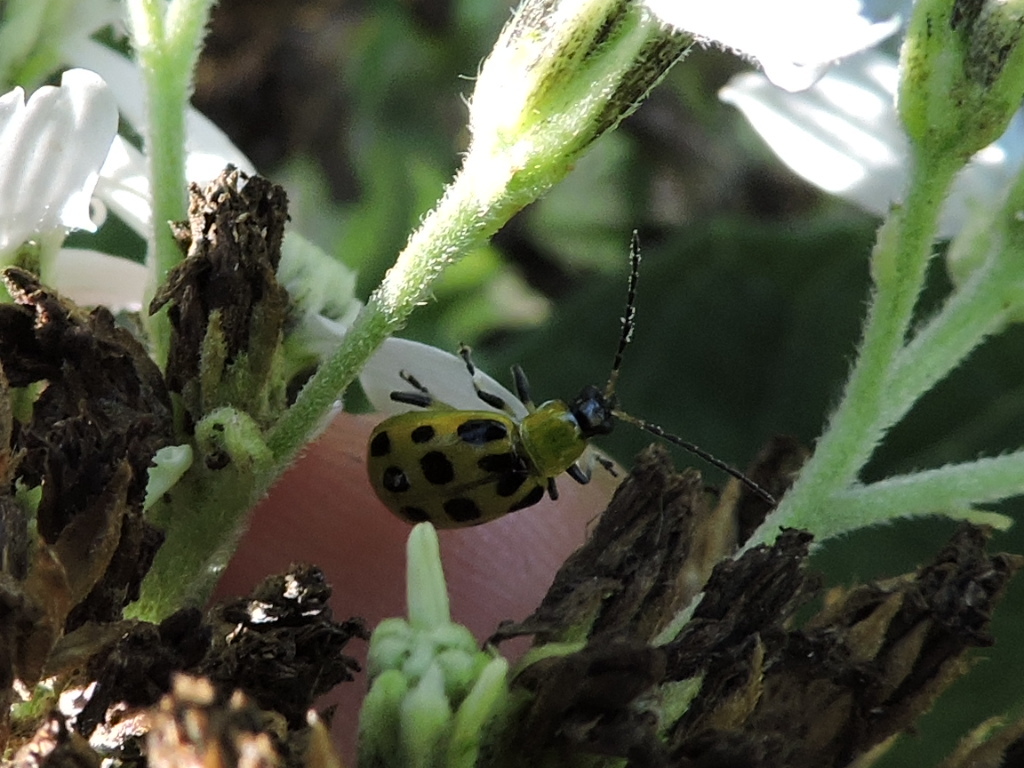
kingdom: Animalia
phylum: Arthropoda
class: Insecta
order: Coleoptera
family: Chrysomelidae
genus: Diabrotica
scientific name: Diabrotica undecimpunctata
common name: Spotted cucumber beetle
